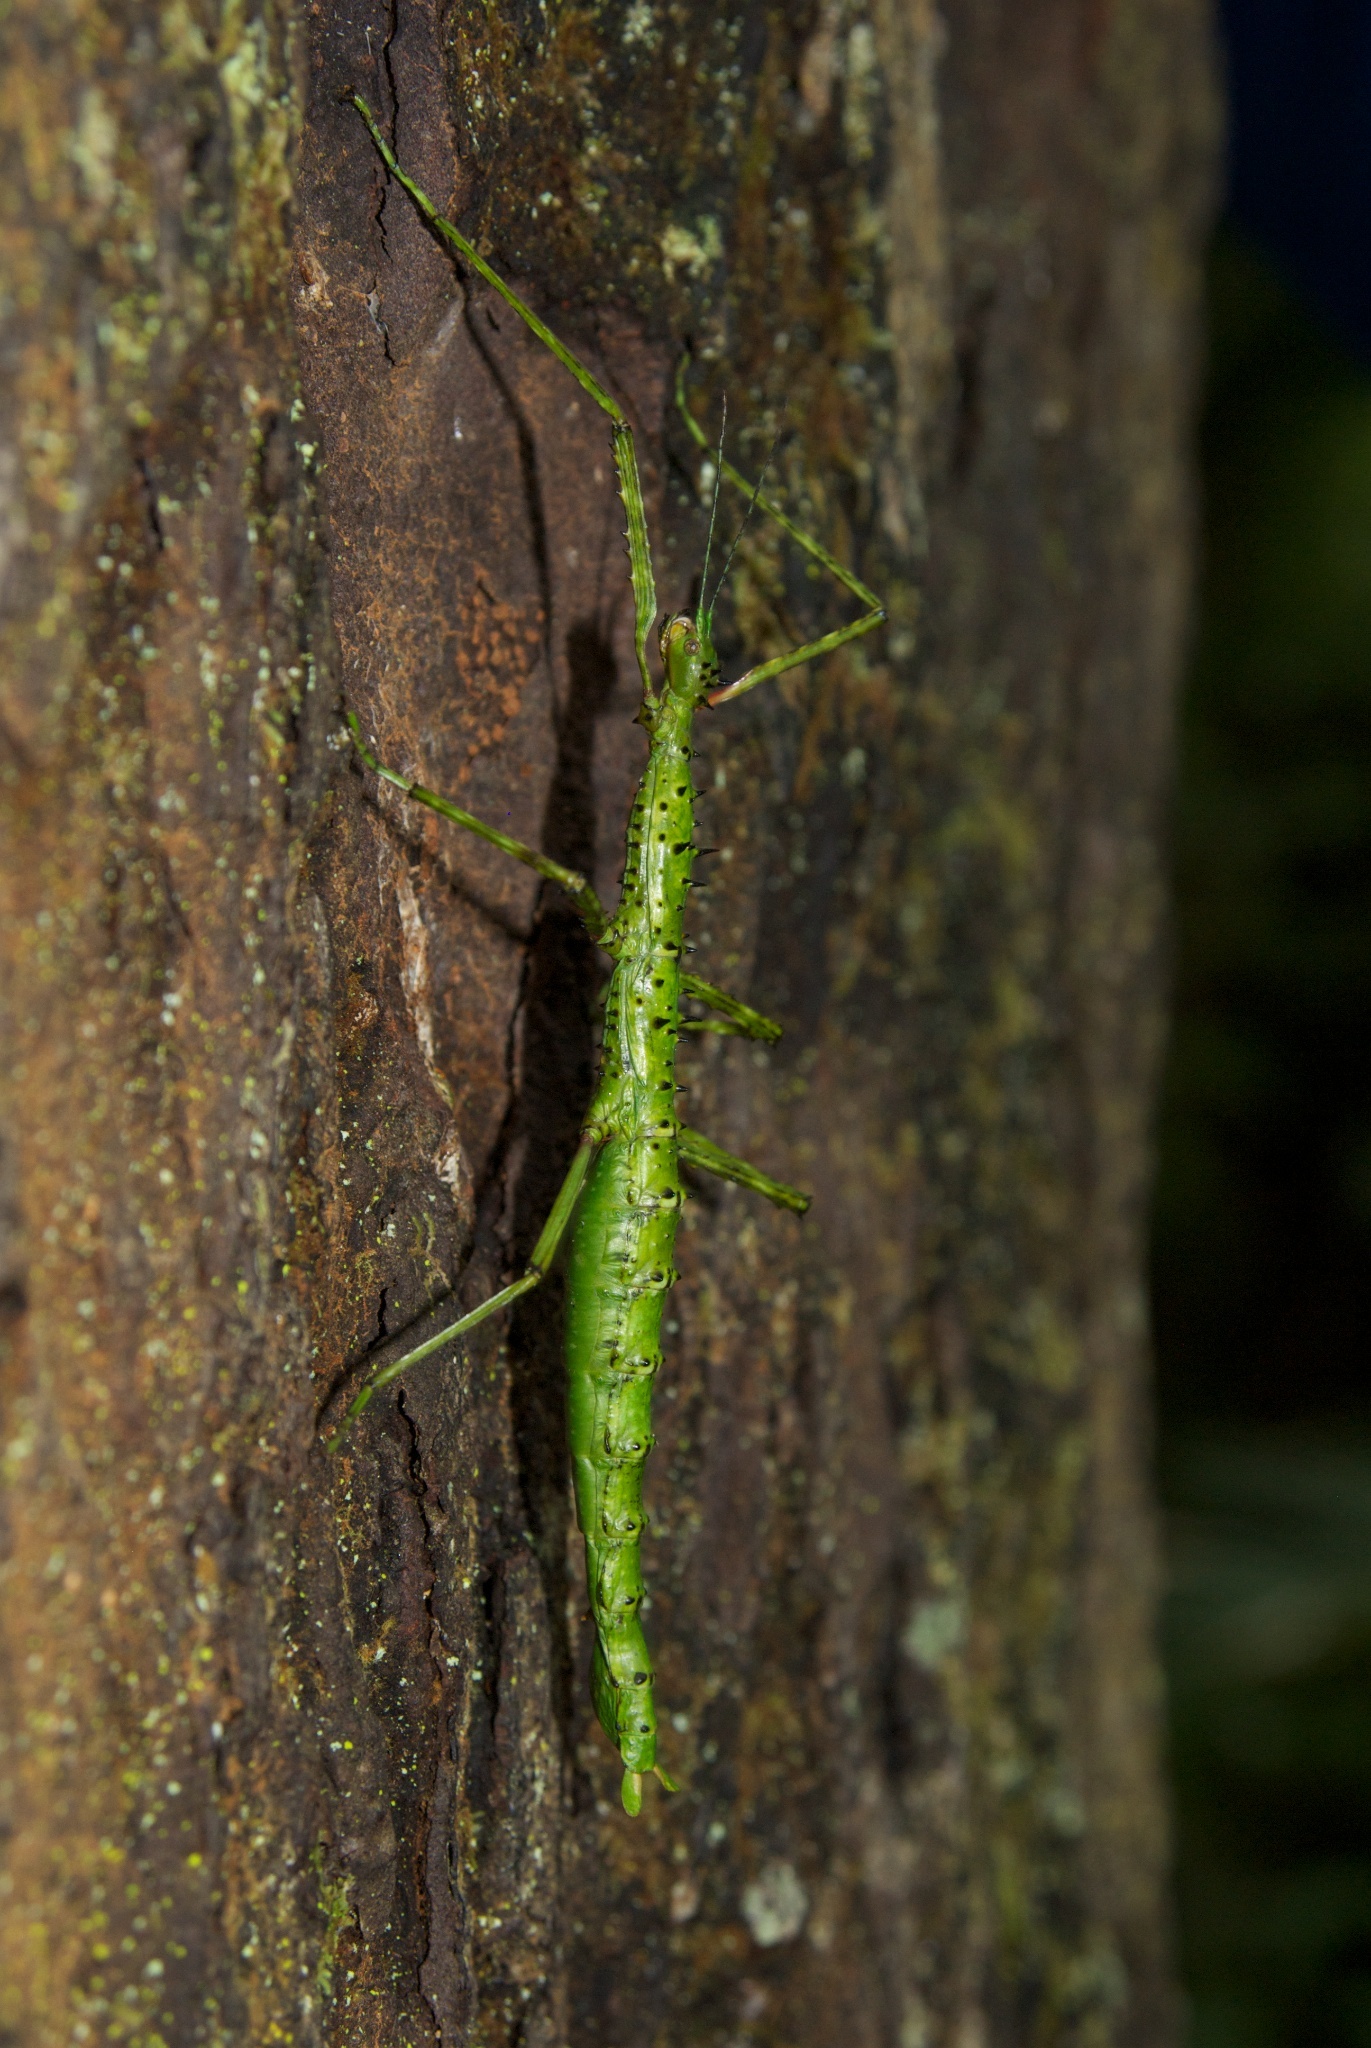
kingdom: Animalia
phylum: Arthropoda
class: Insecta
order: Phasmida
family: Phasmatidae
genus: Acanthoxyla
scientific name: Acanthoxyla geisovii
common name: Prickly stick insect
